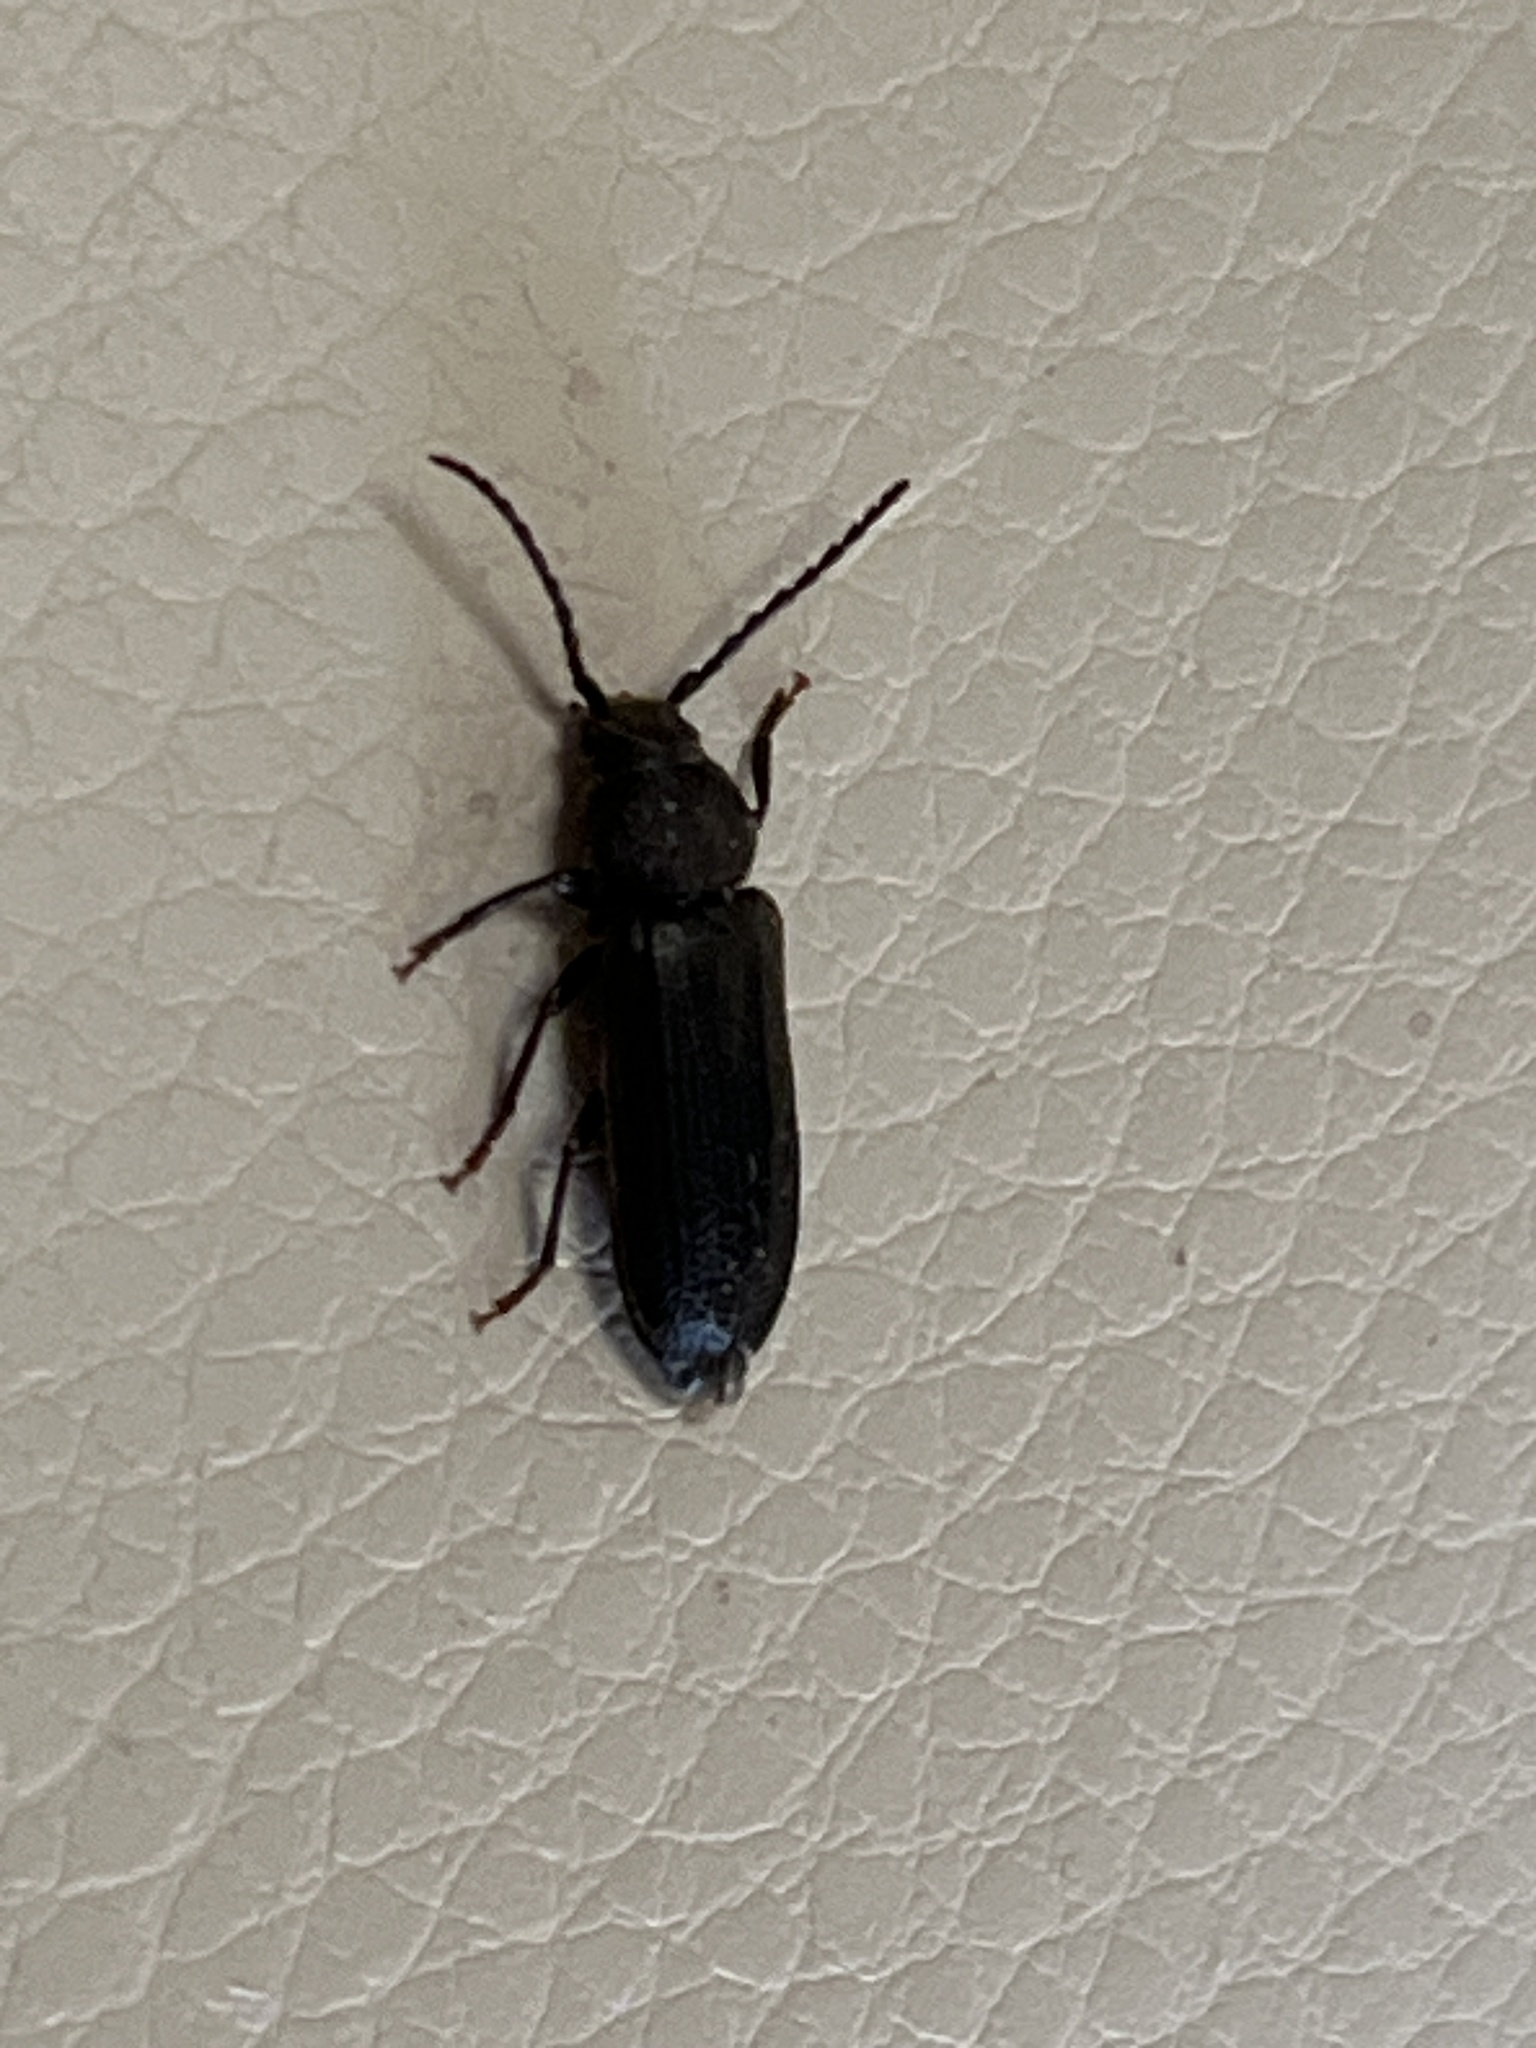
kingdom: Animalia
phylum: Arthropoda
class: Insecta
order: Coleoptera
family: Cerambycidae
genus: Asemum
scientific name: Asemum striatum
